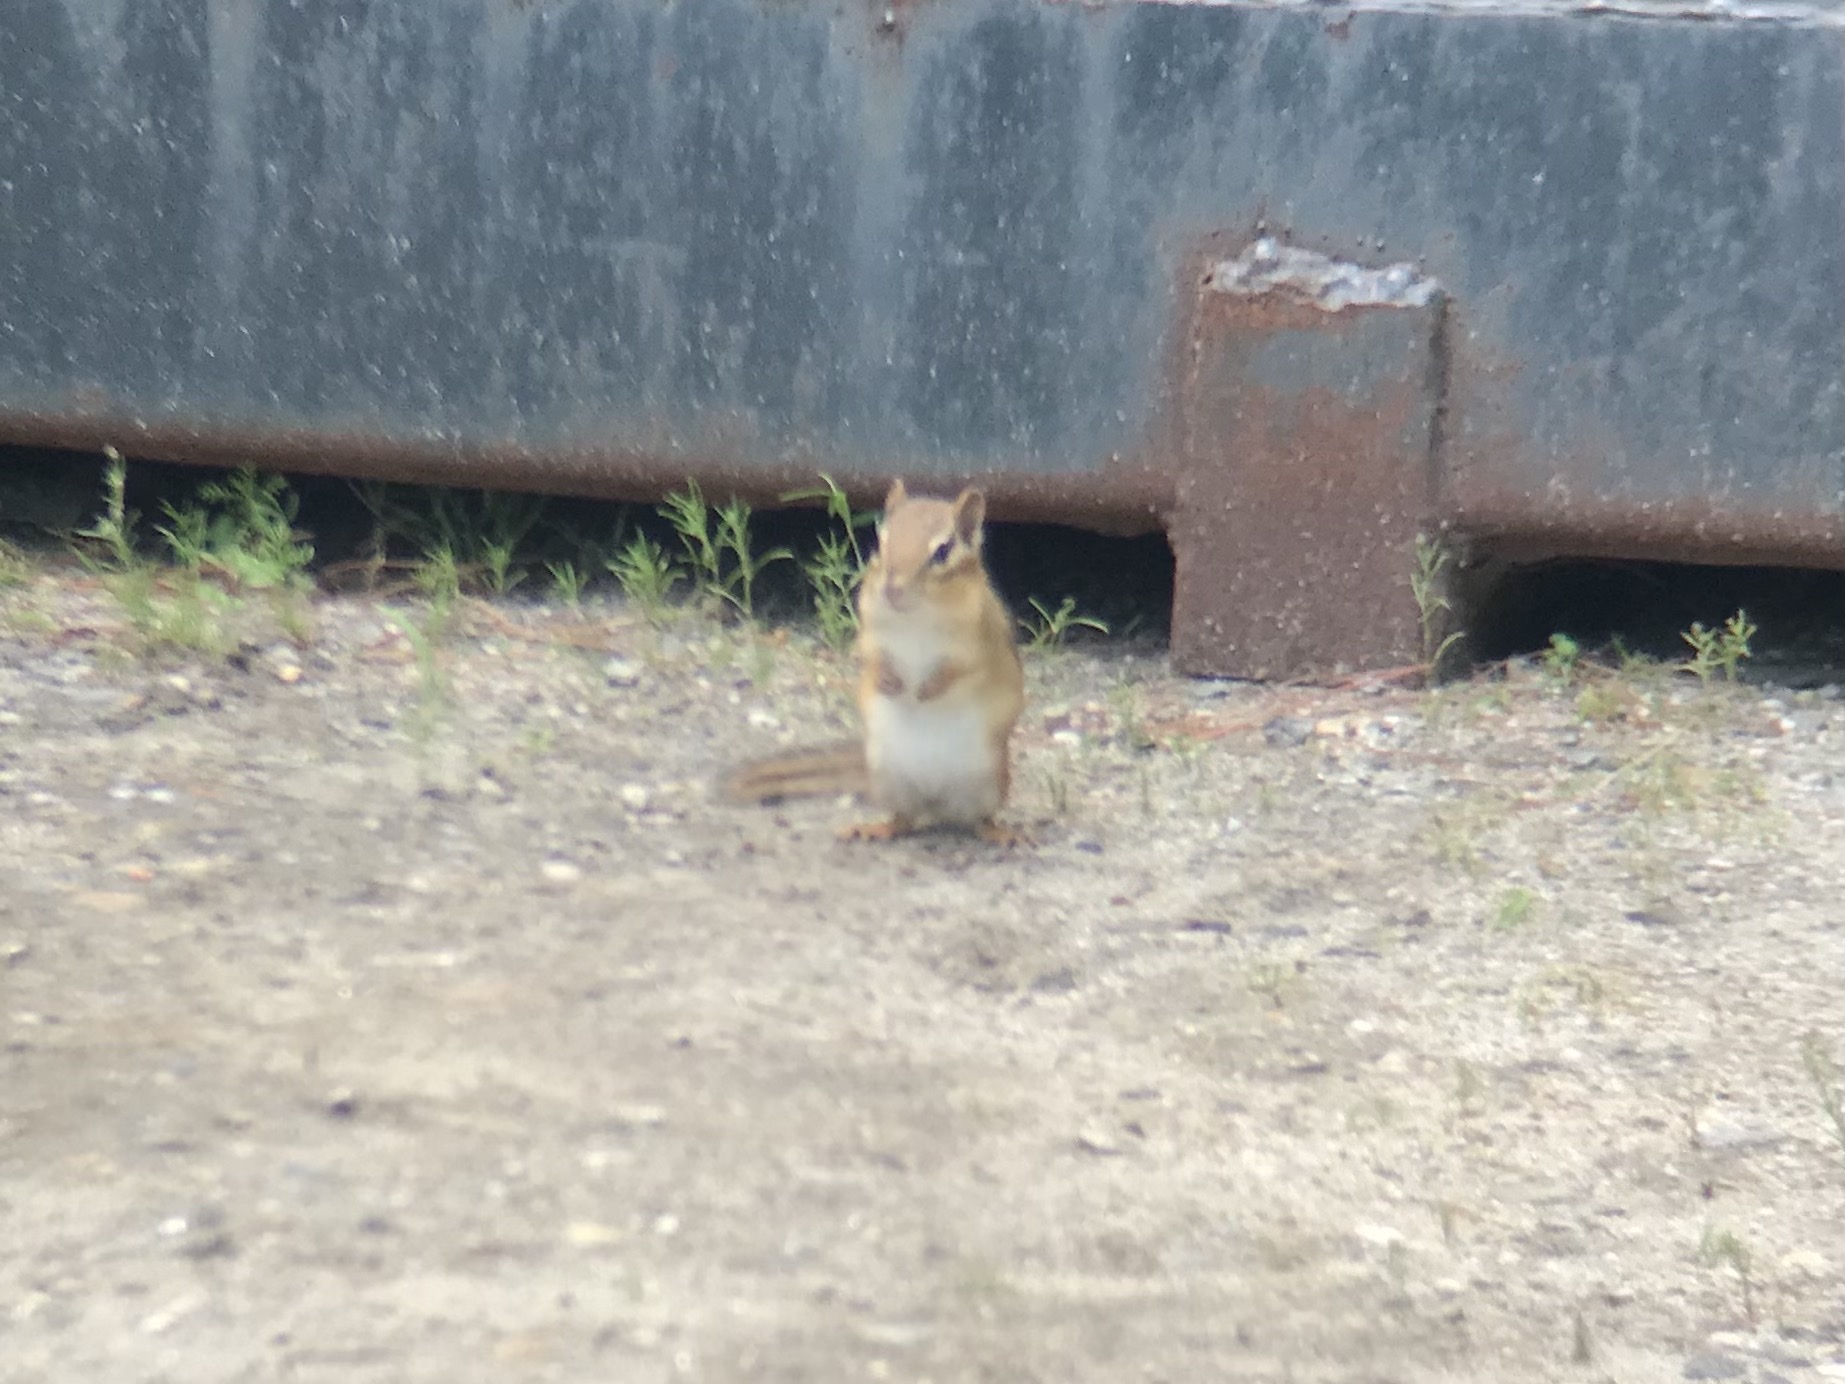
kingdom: Animalia
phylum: Chordata
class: Mammalia
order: Rodentia
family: Sciuridae
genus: Tamias
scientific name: Tamias striatus
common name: Eastern chipmunk
